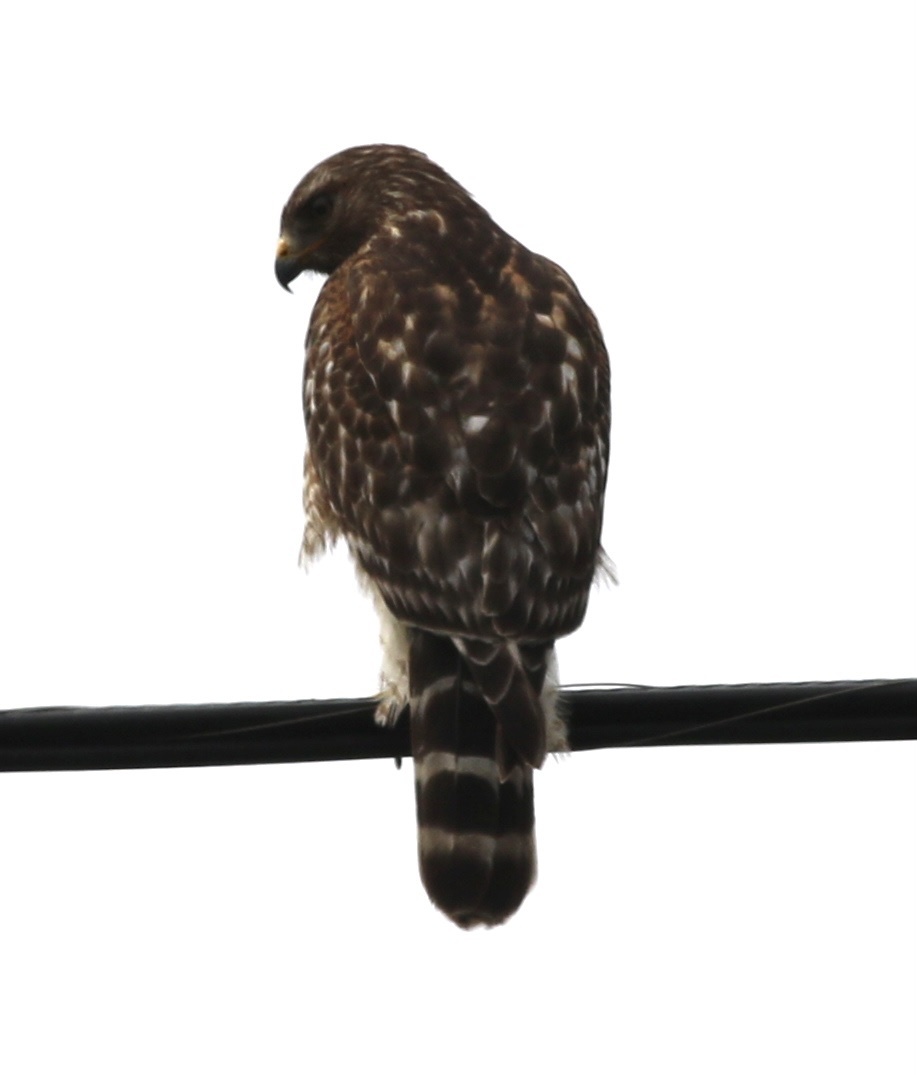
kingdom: Animalia
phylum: Chordata
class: Aves
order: Accipitriformes
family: Accipitridae
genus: Buteo
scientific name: Buteo lineatus
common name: Red-shouldered hawk
